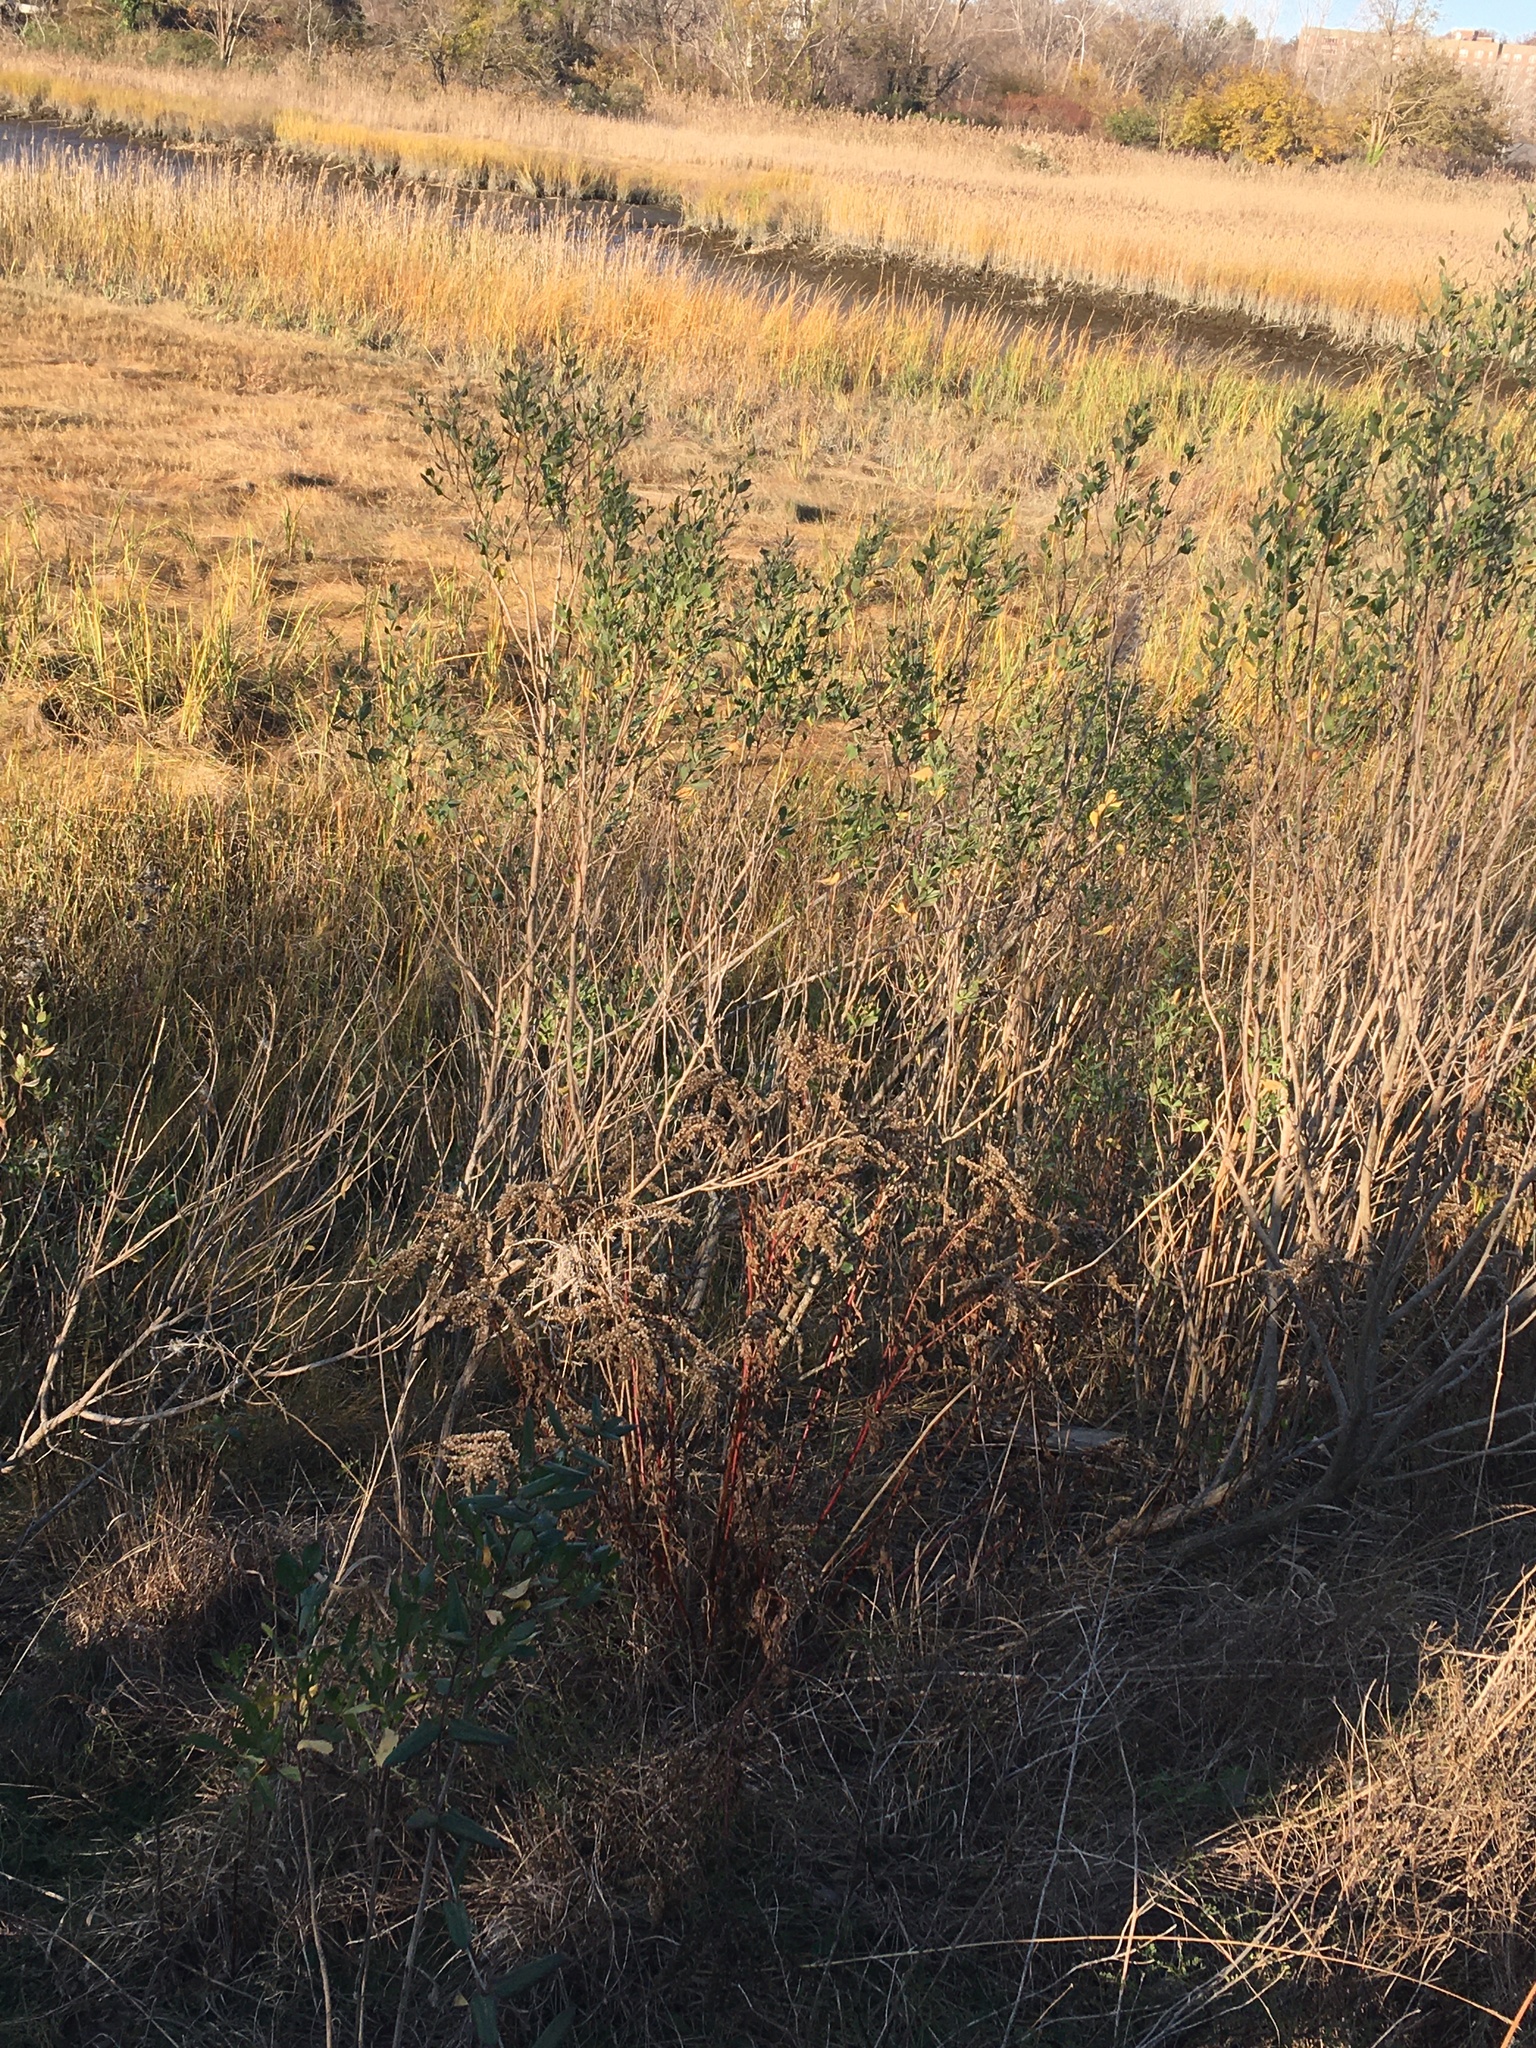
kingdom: Plantae
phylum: Tracheophyta
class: Magnoliopsida
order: Asterales
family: Asteraceae
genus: Baccharis
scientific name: Baccharis halimifolia
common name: Eastern baccharis
